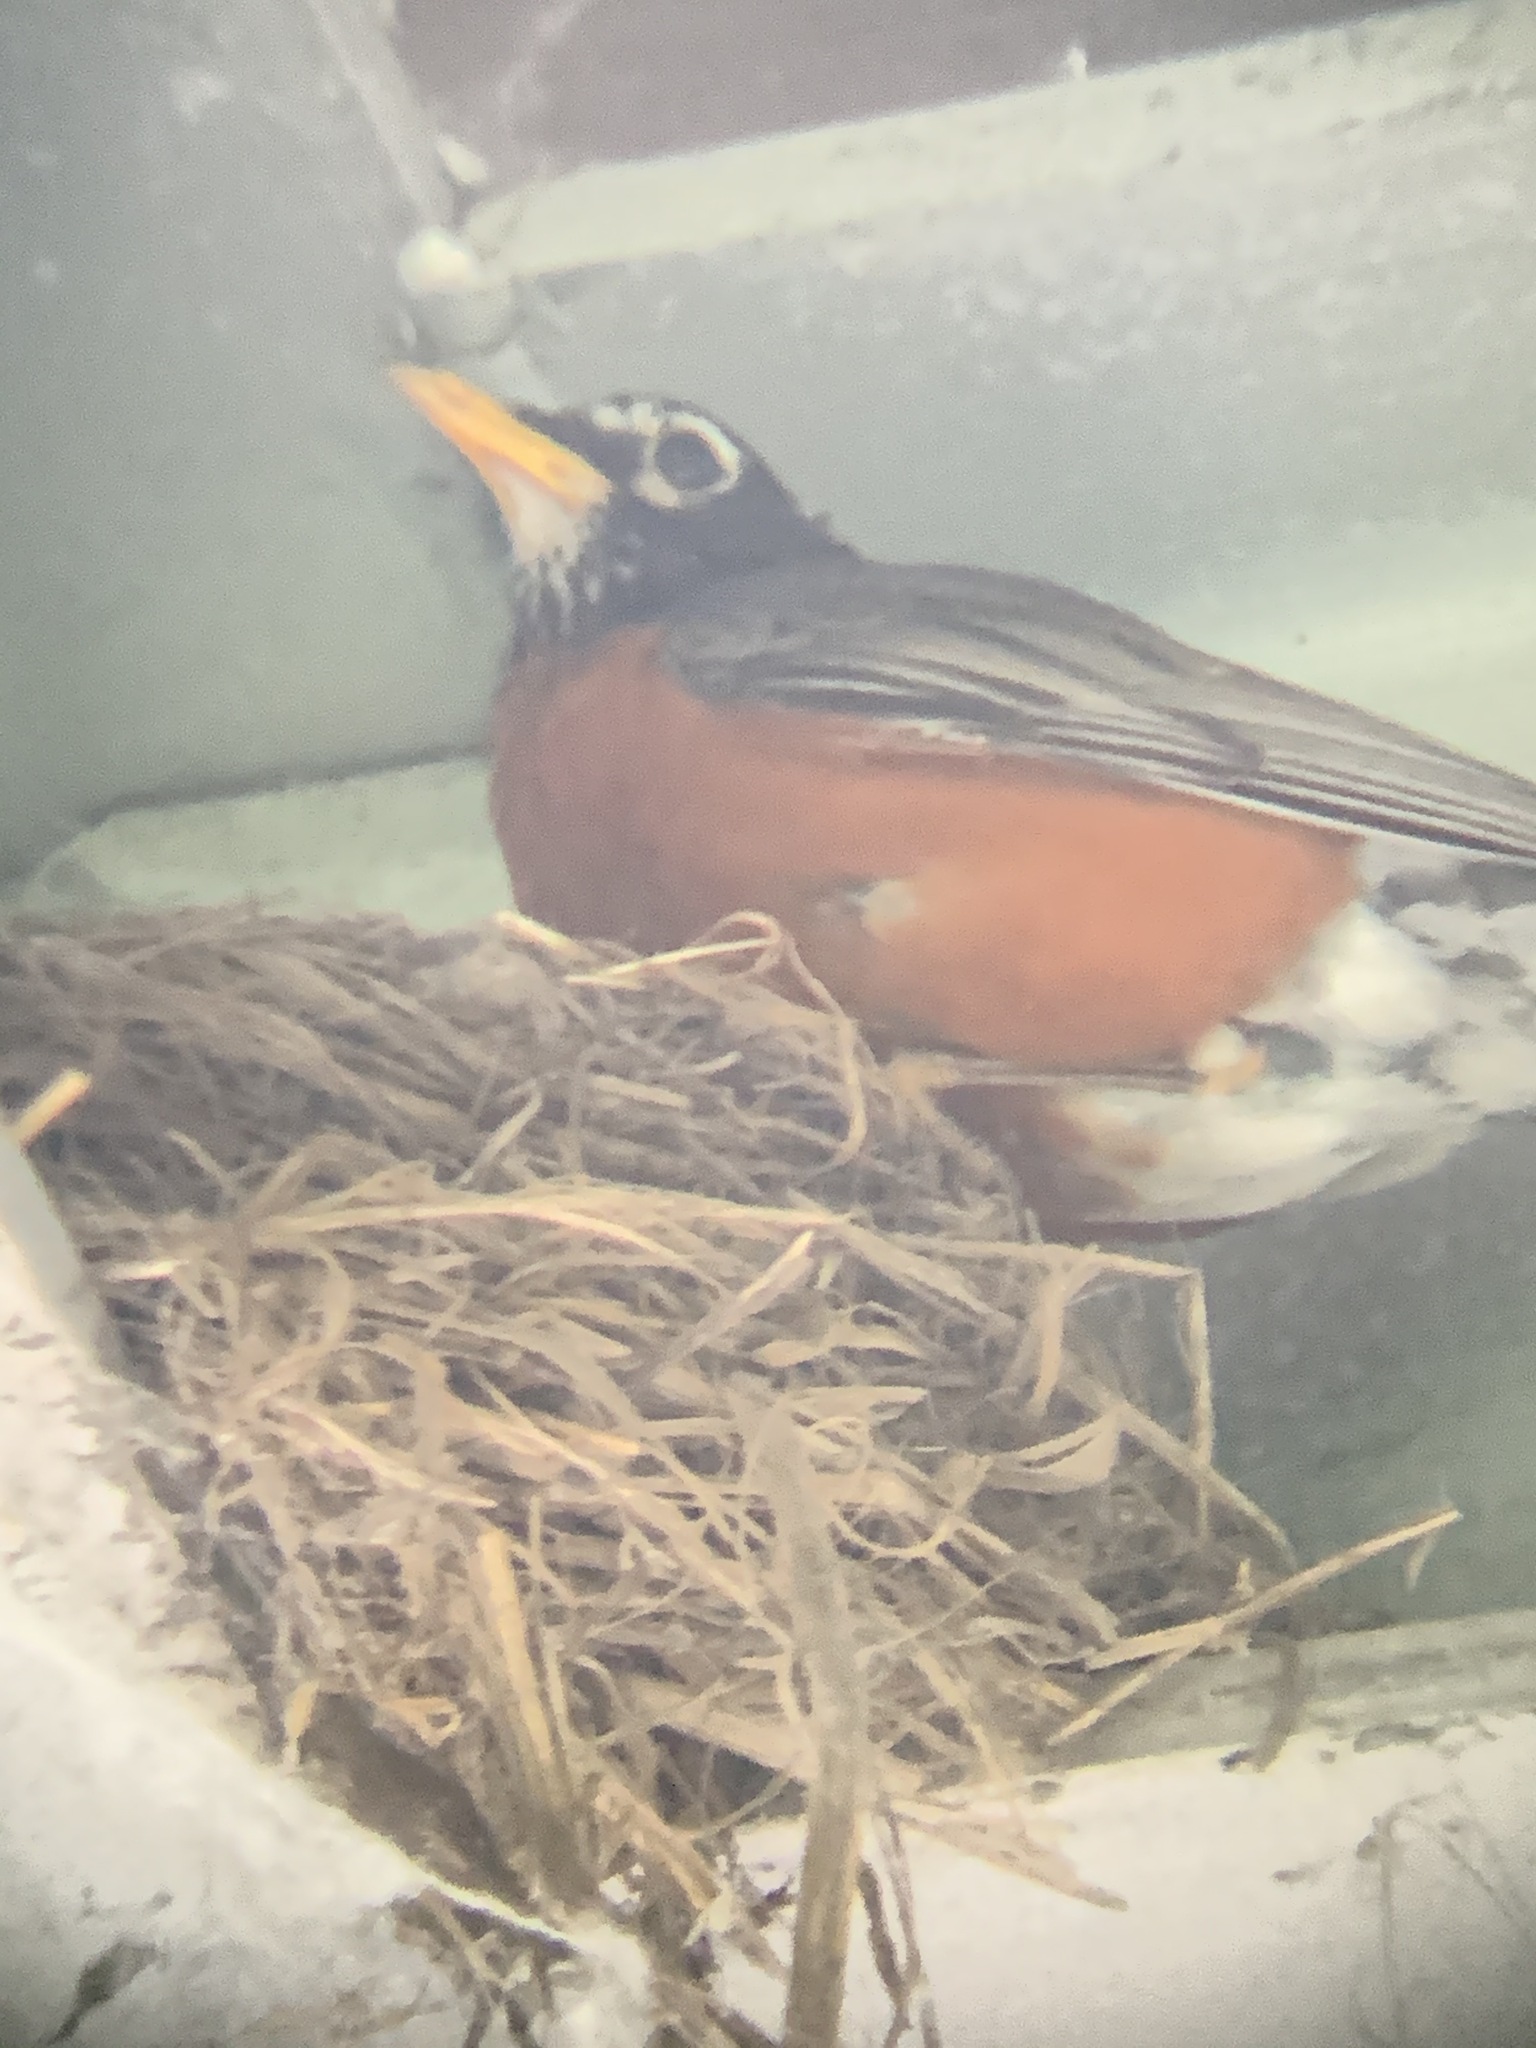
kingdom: Animalia
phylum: Chordata
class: Aves
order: Passeriformes
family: Turdidae
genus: Turdus
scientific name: Turdus migratorius
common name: American robin
